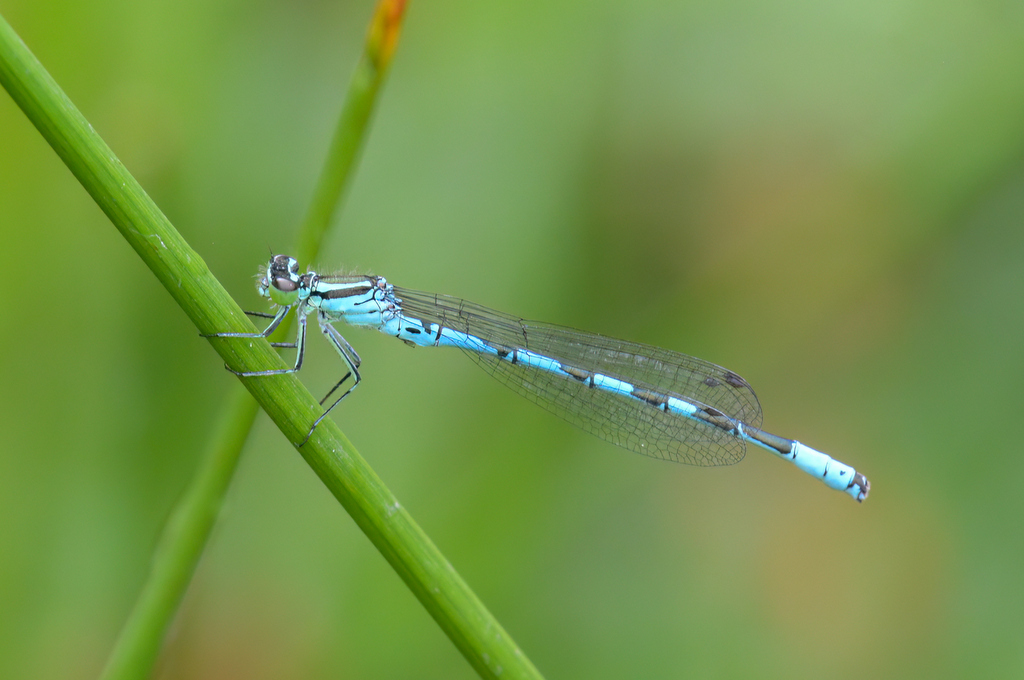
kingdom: Animalia
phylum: Arthropoda
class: Insecta
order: Odonata
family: Coenagrionidae
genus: Coenagrion
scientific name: Coenagrion hastulatum
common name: Spearhead bluet
